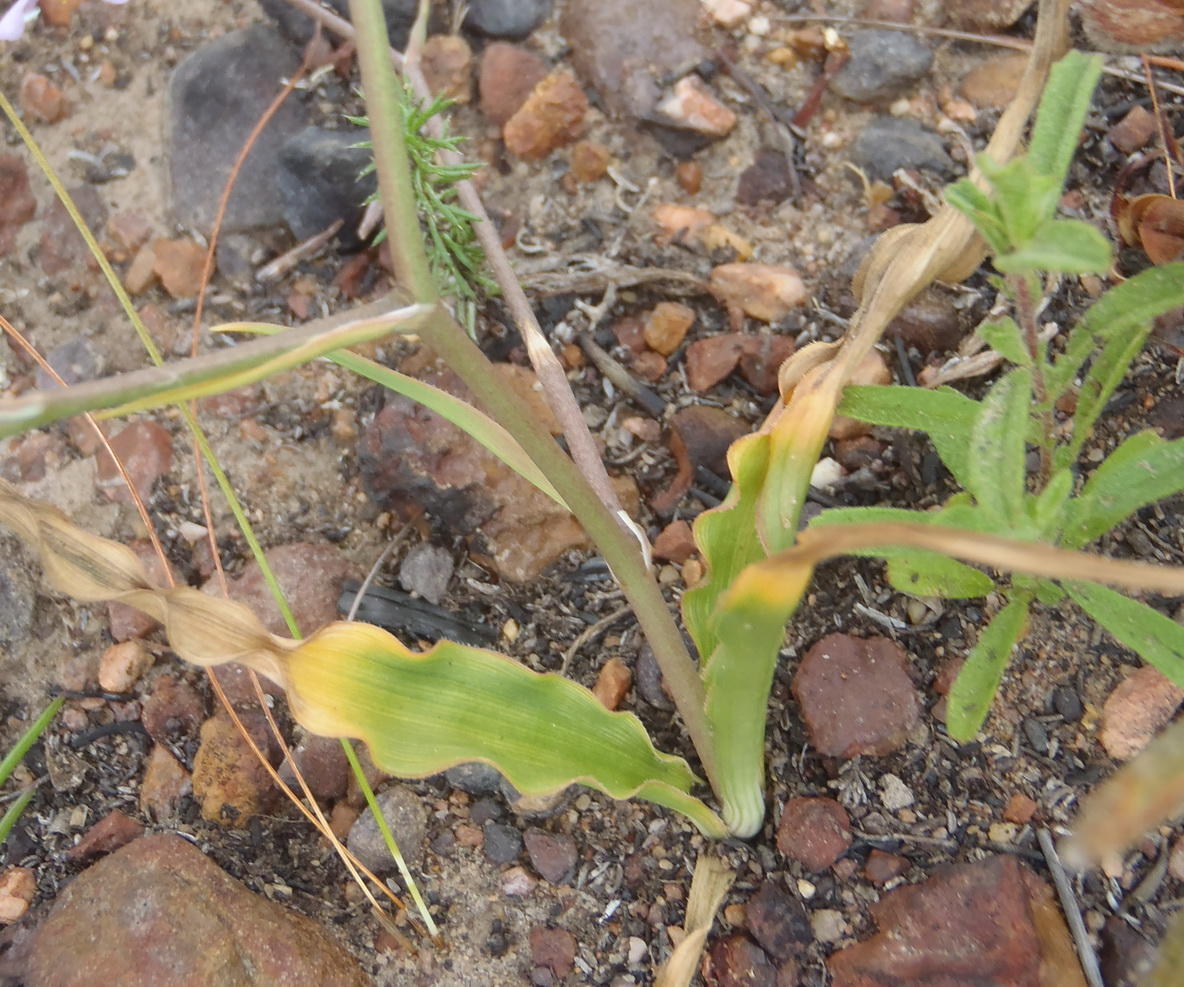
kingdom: Plantae
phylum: Tracheophyta
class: Liliopsida
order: Asparagales
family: Tecophilaeaceae
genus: Cyanella
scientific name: Cyanella hyacinthoides
